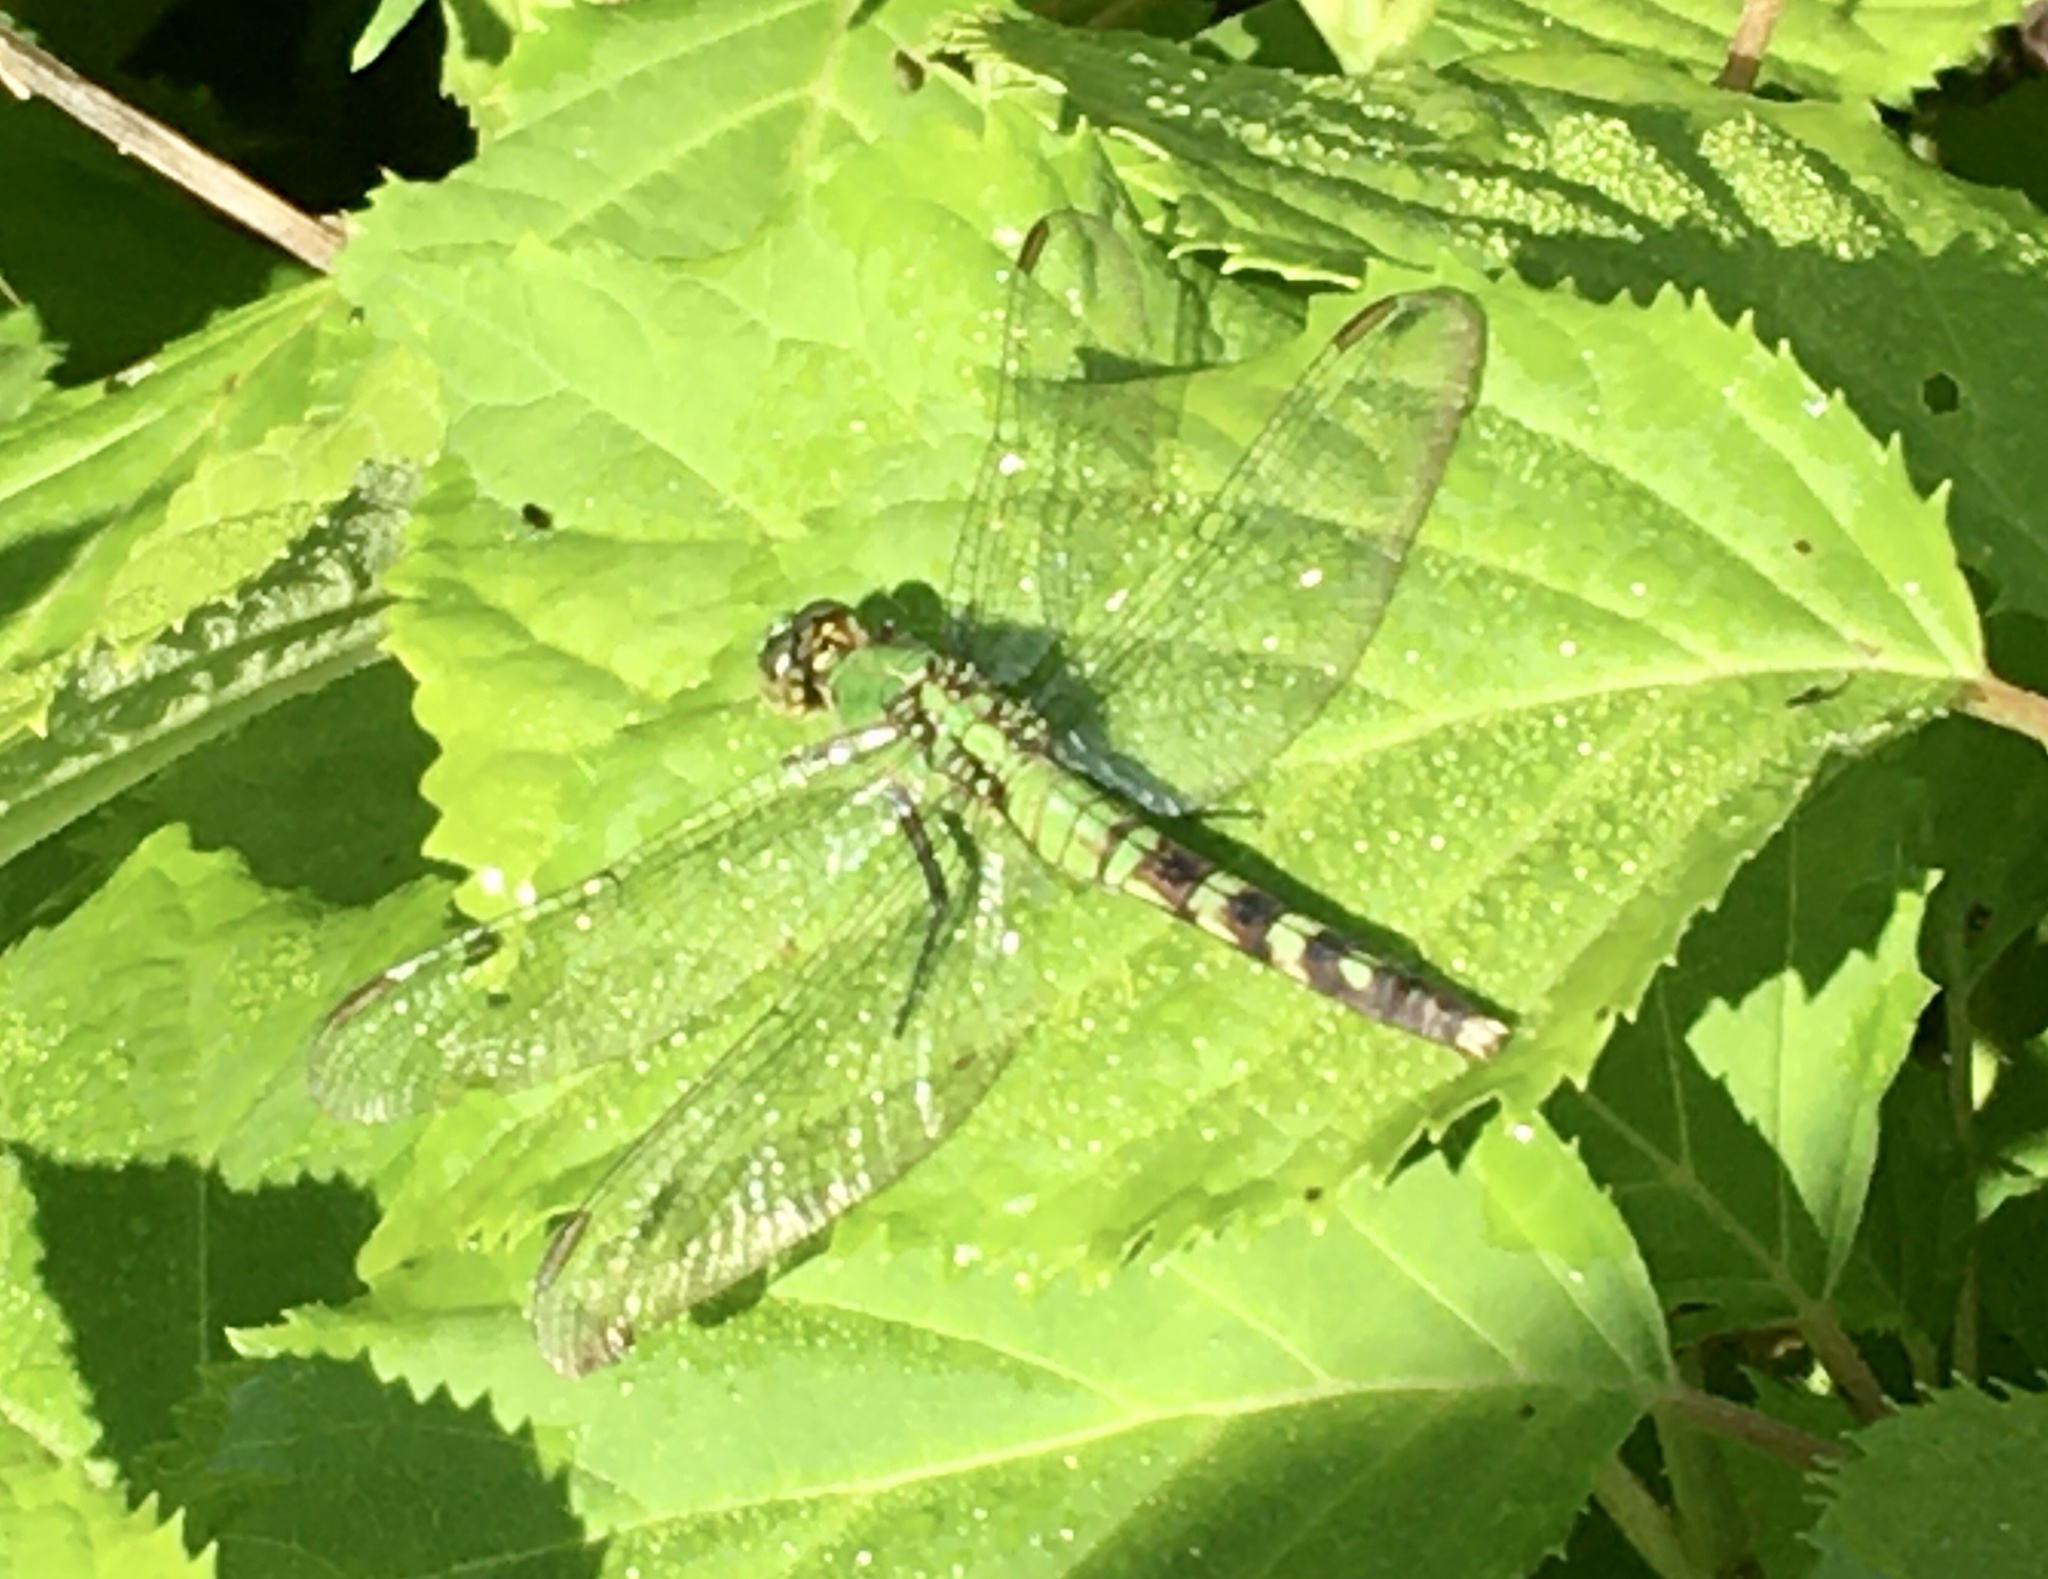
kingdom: Animalia
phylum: Arthropoda
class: Insecta
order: Odonata
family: Libellulidae
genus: Erythemis
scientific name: Erythemis simplicicollis
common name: Eastern pondhawk
